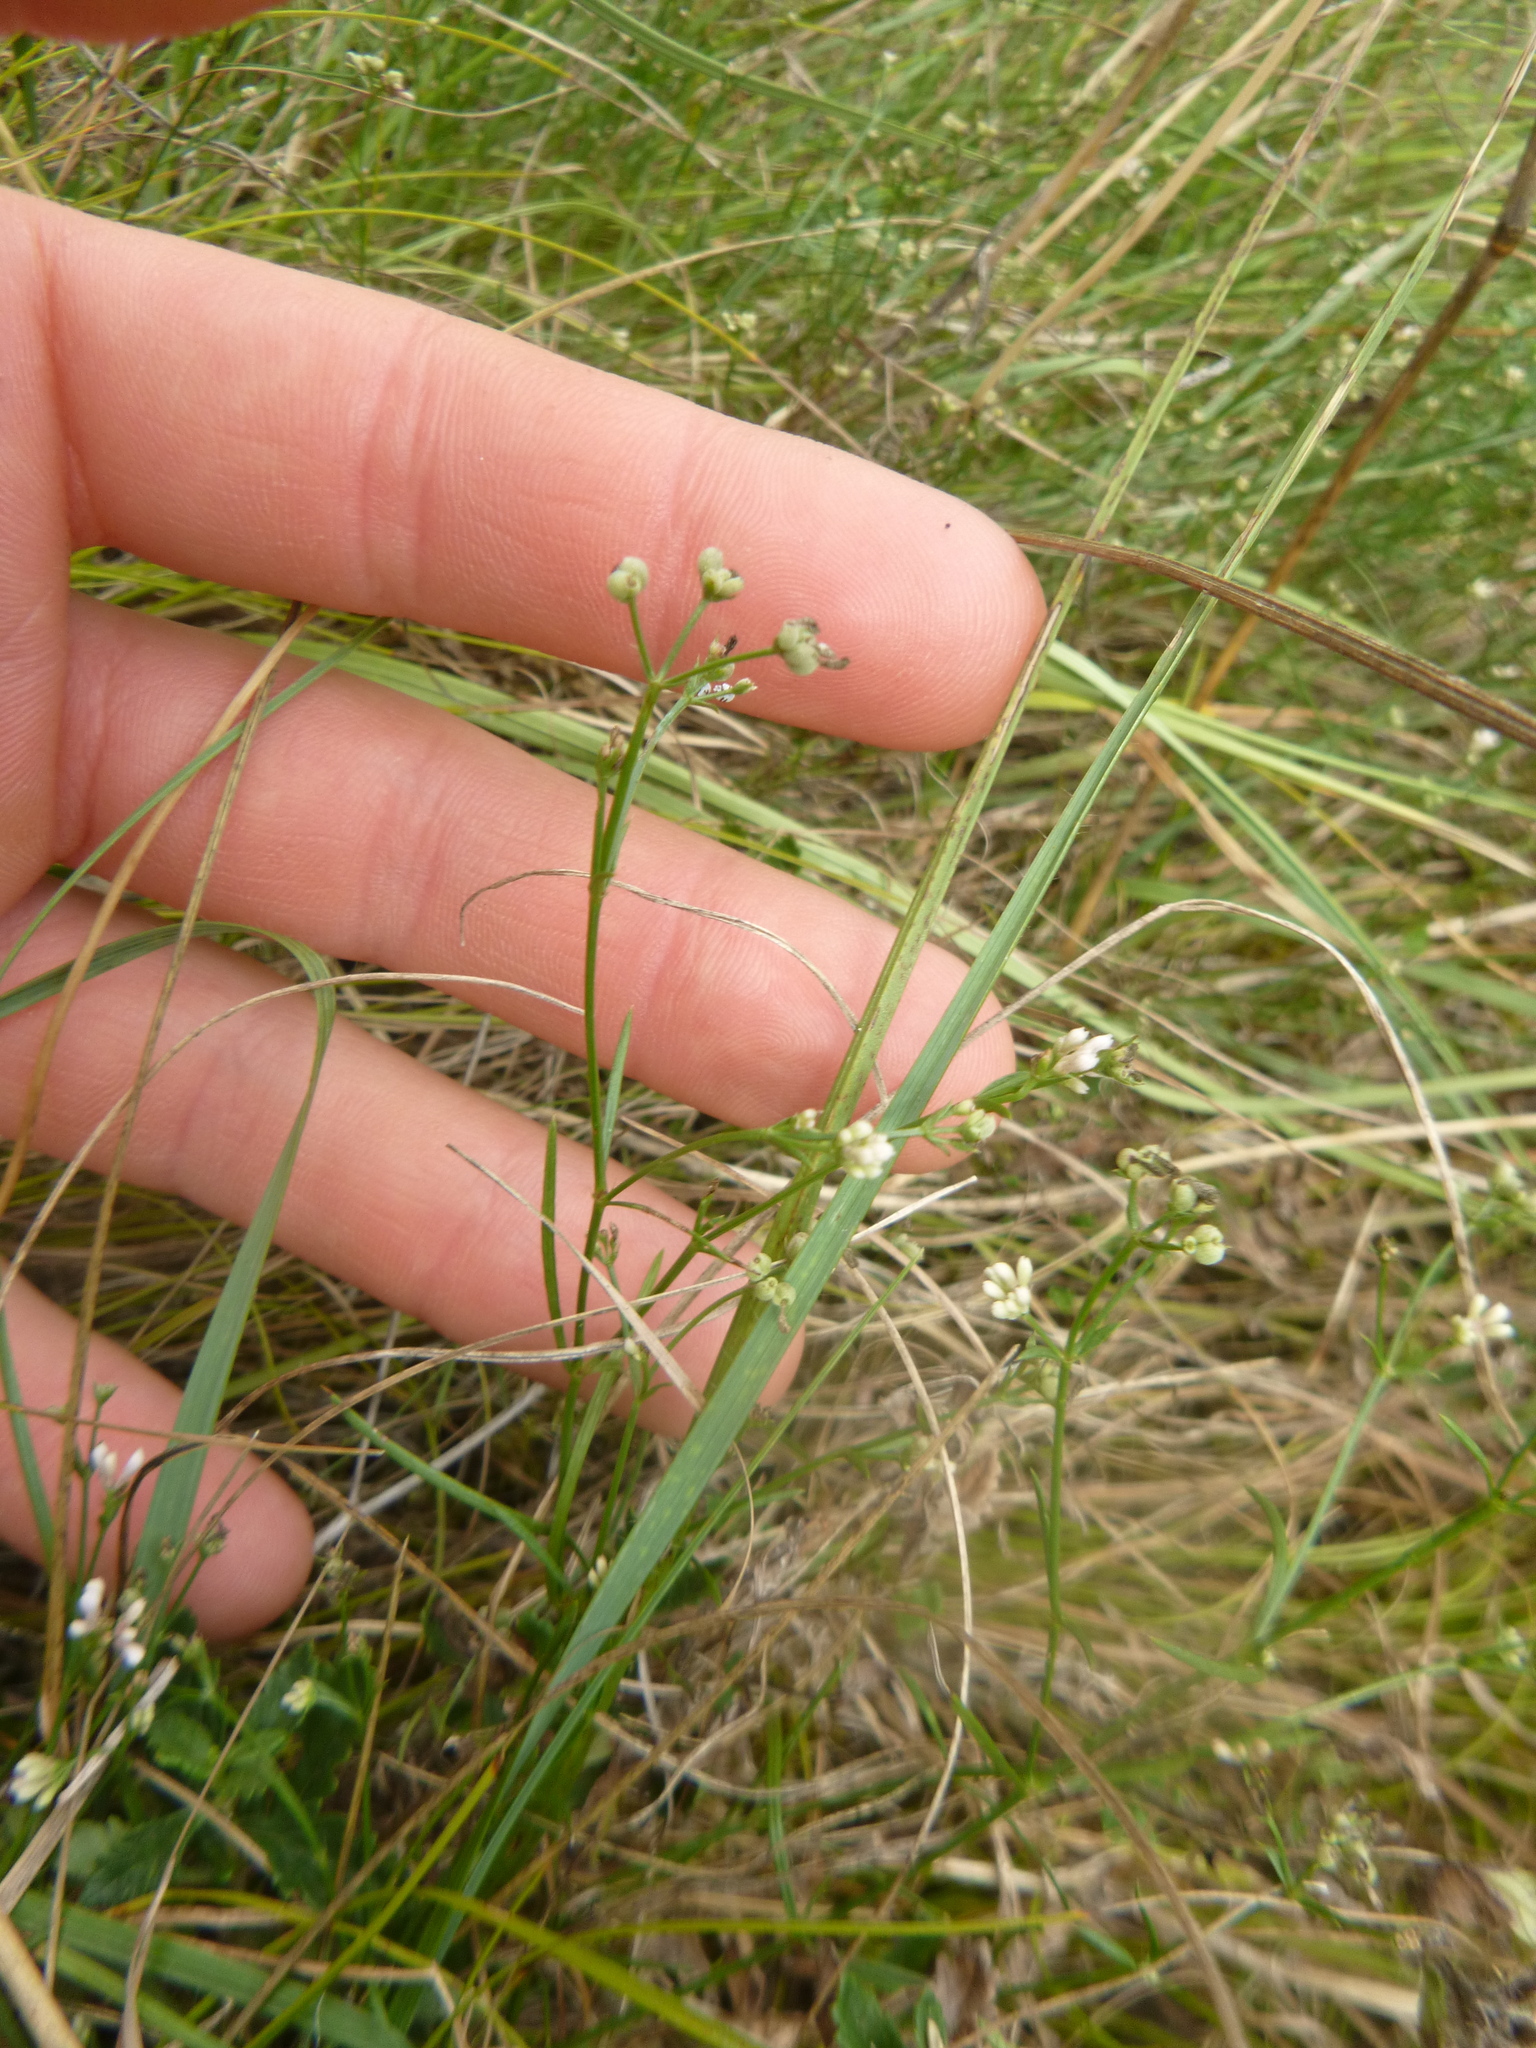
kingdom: Plantae
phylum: Tracheophyta
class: Magnoliopsida
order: Gentianales
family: Rubiaceae
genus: Cynanchica
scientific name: Cynanchica pyrenaica
